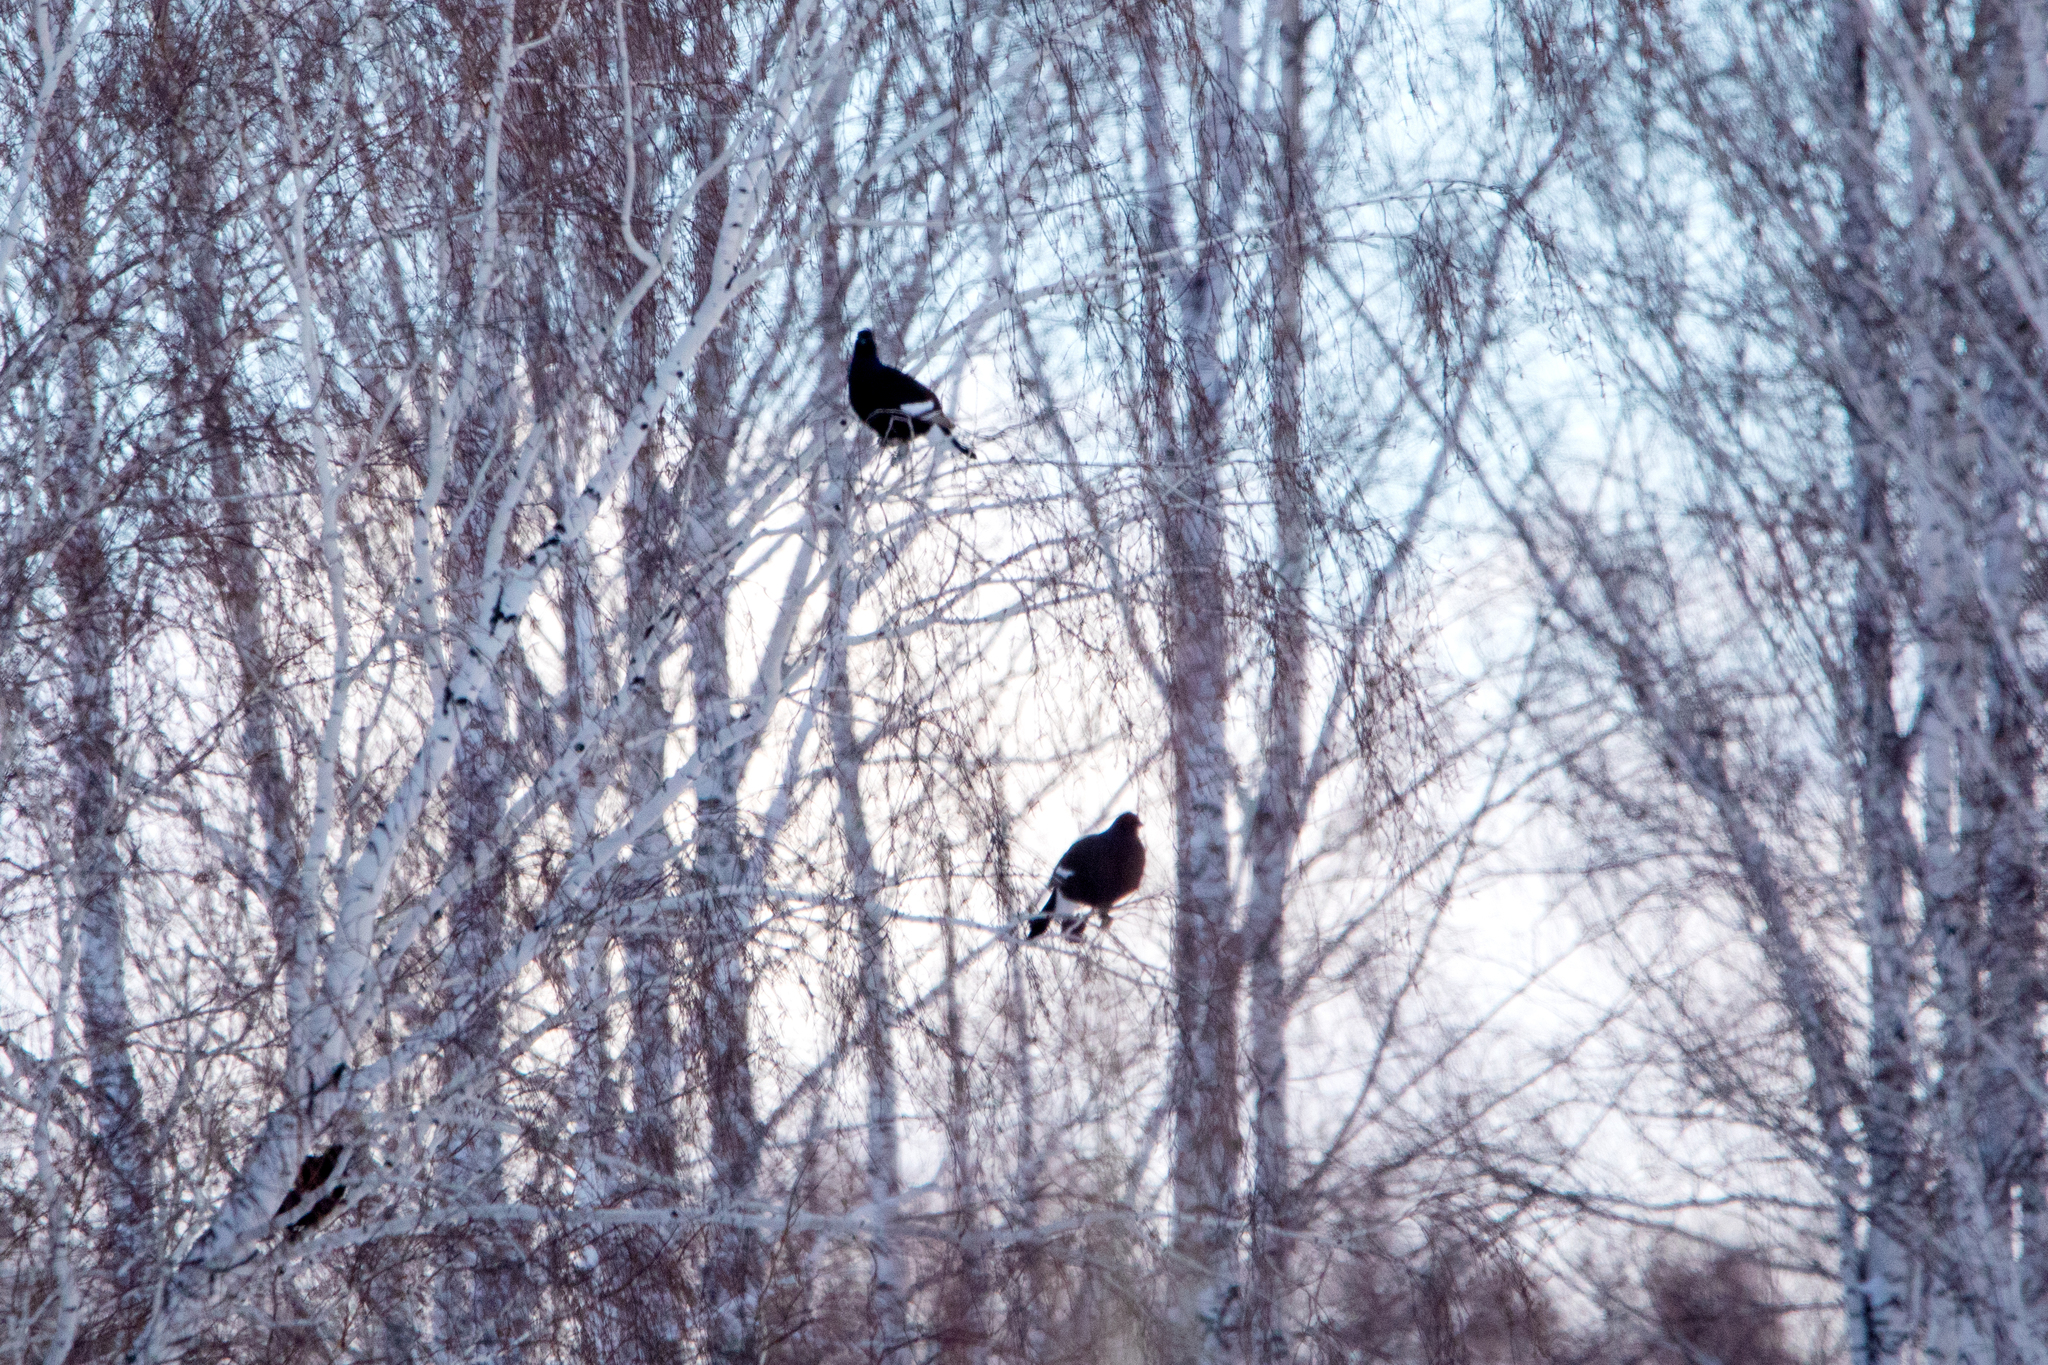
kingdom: Animalia
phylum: Chordata
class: Aves
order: Galliformes
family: Phasianidae
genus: Lyrurus
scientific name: Lyrurus tetrix
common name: Black grouse
